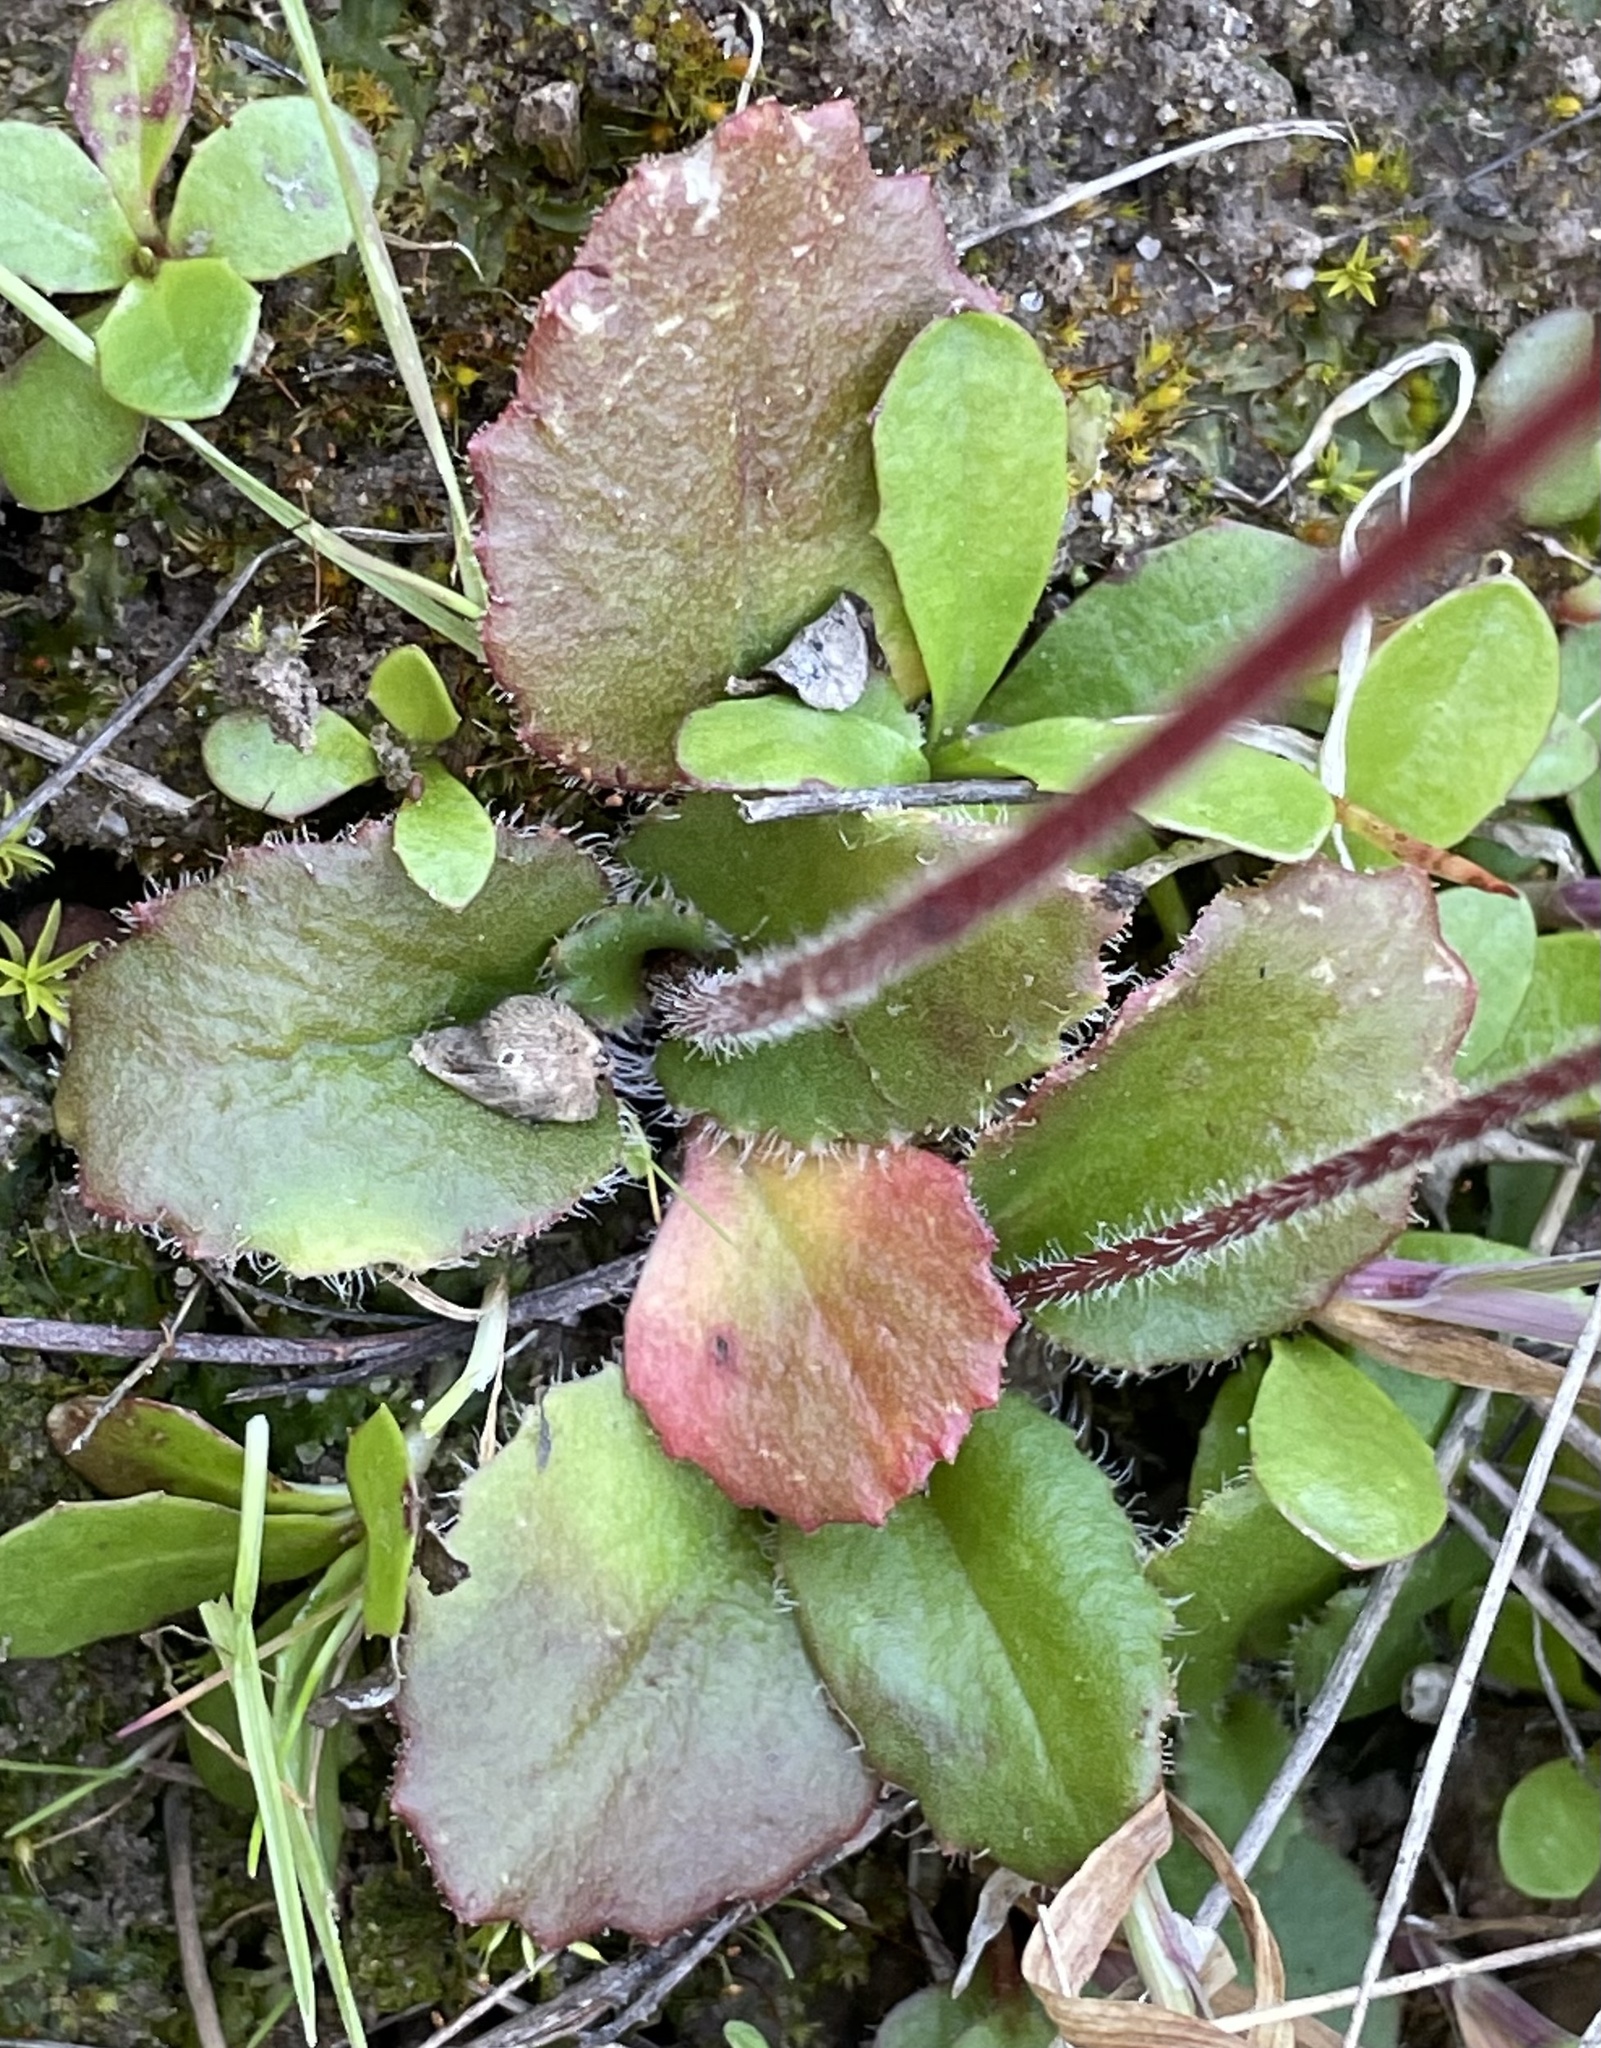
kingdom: Plantae
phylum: Tracheophyta
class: Magnoliopsida
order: Saxifragales
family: Saxifragaceae
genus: Micranthes
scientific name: Micranthes californica
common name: California saxifrage
